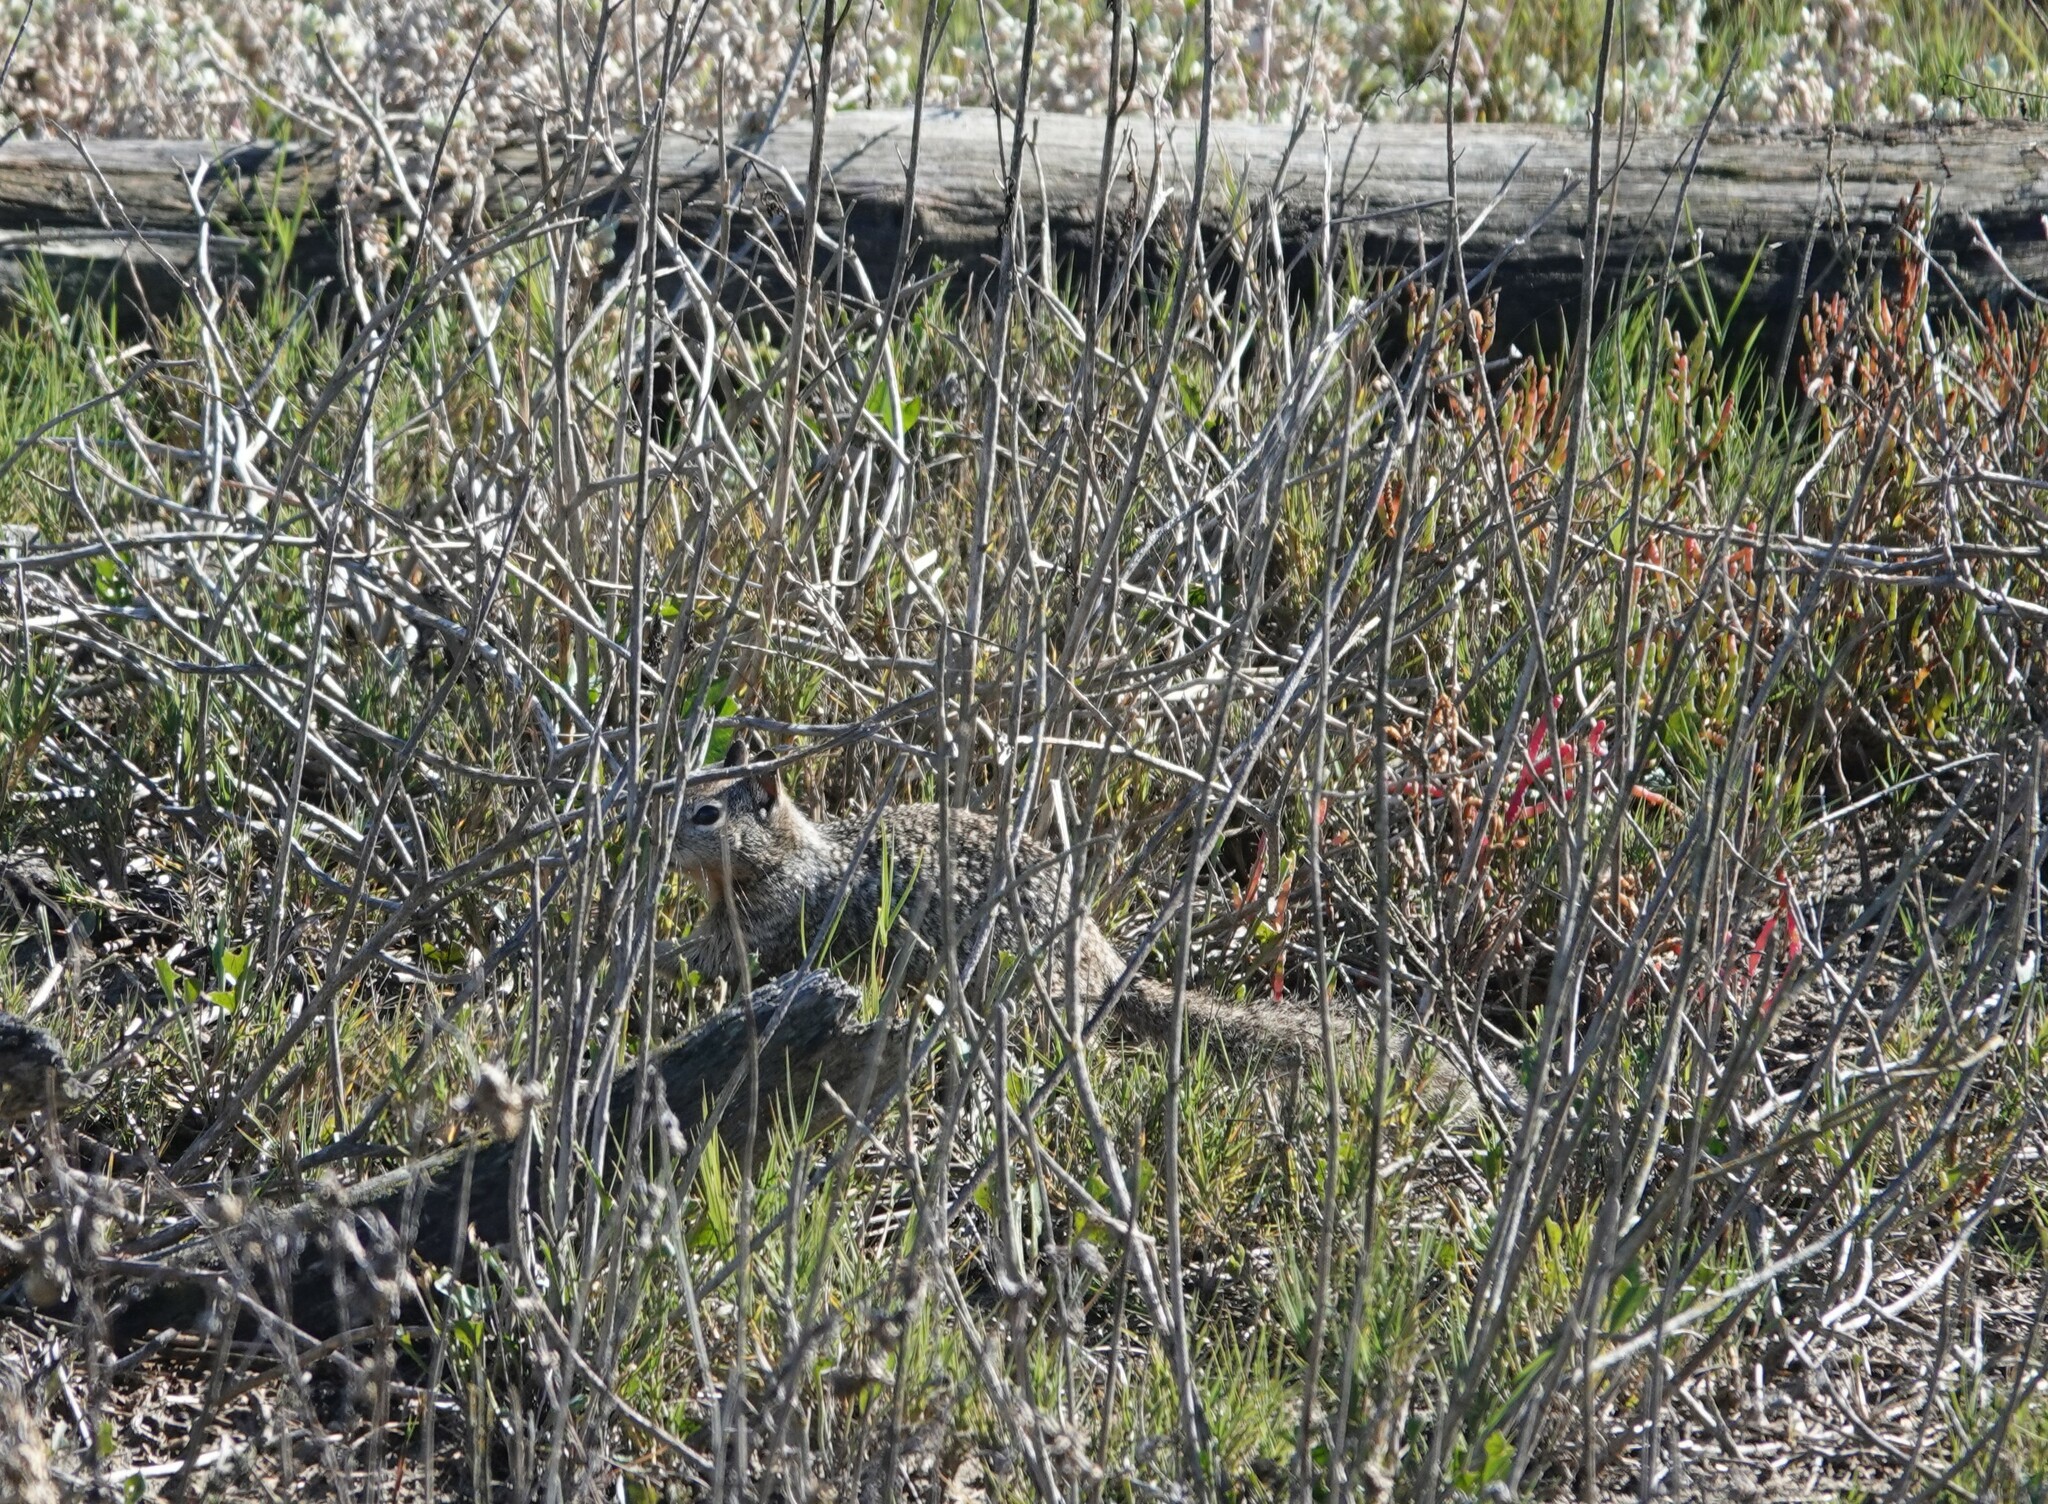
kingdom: Animalia
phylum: Chordata
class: Mammalia
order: Rodentia
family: Sciuridae
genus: Otospermophilus
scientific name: Otospermophilus beecheyi
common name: California ground squirrel
